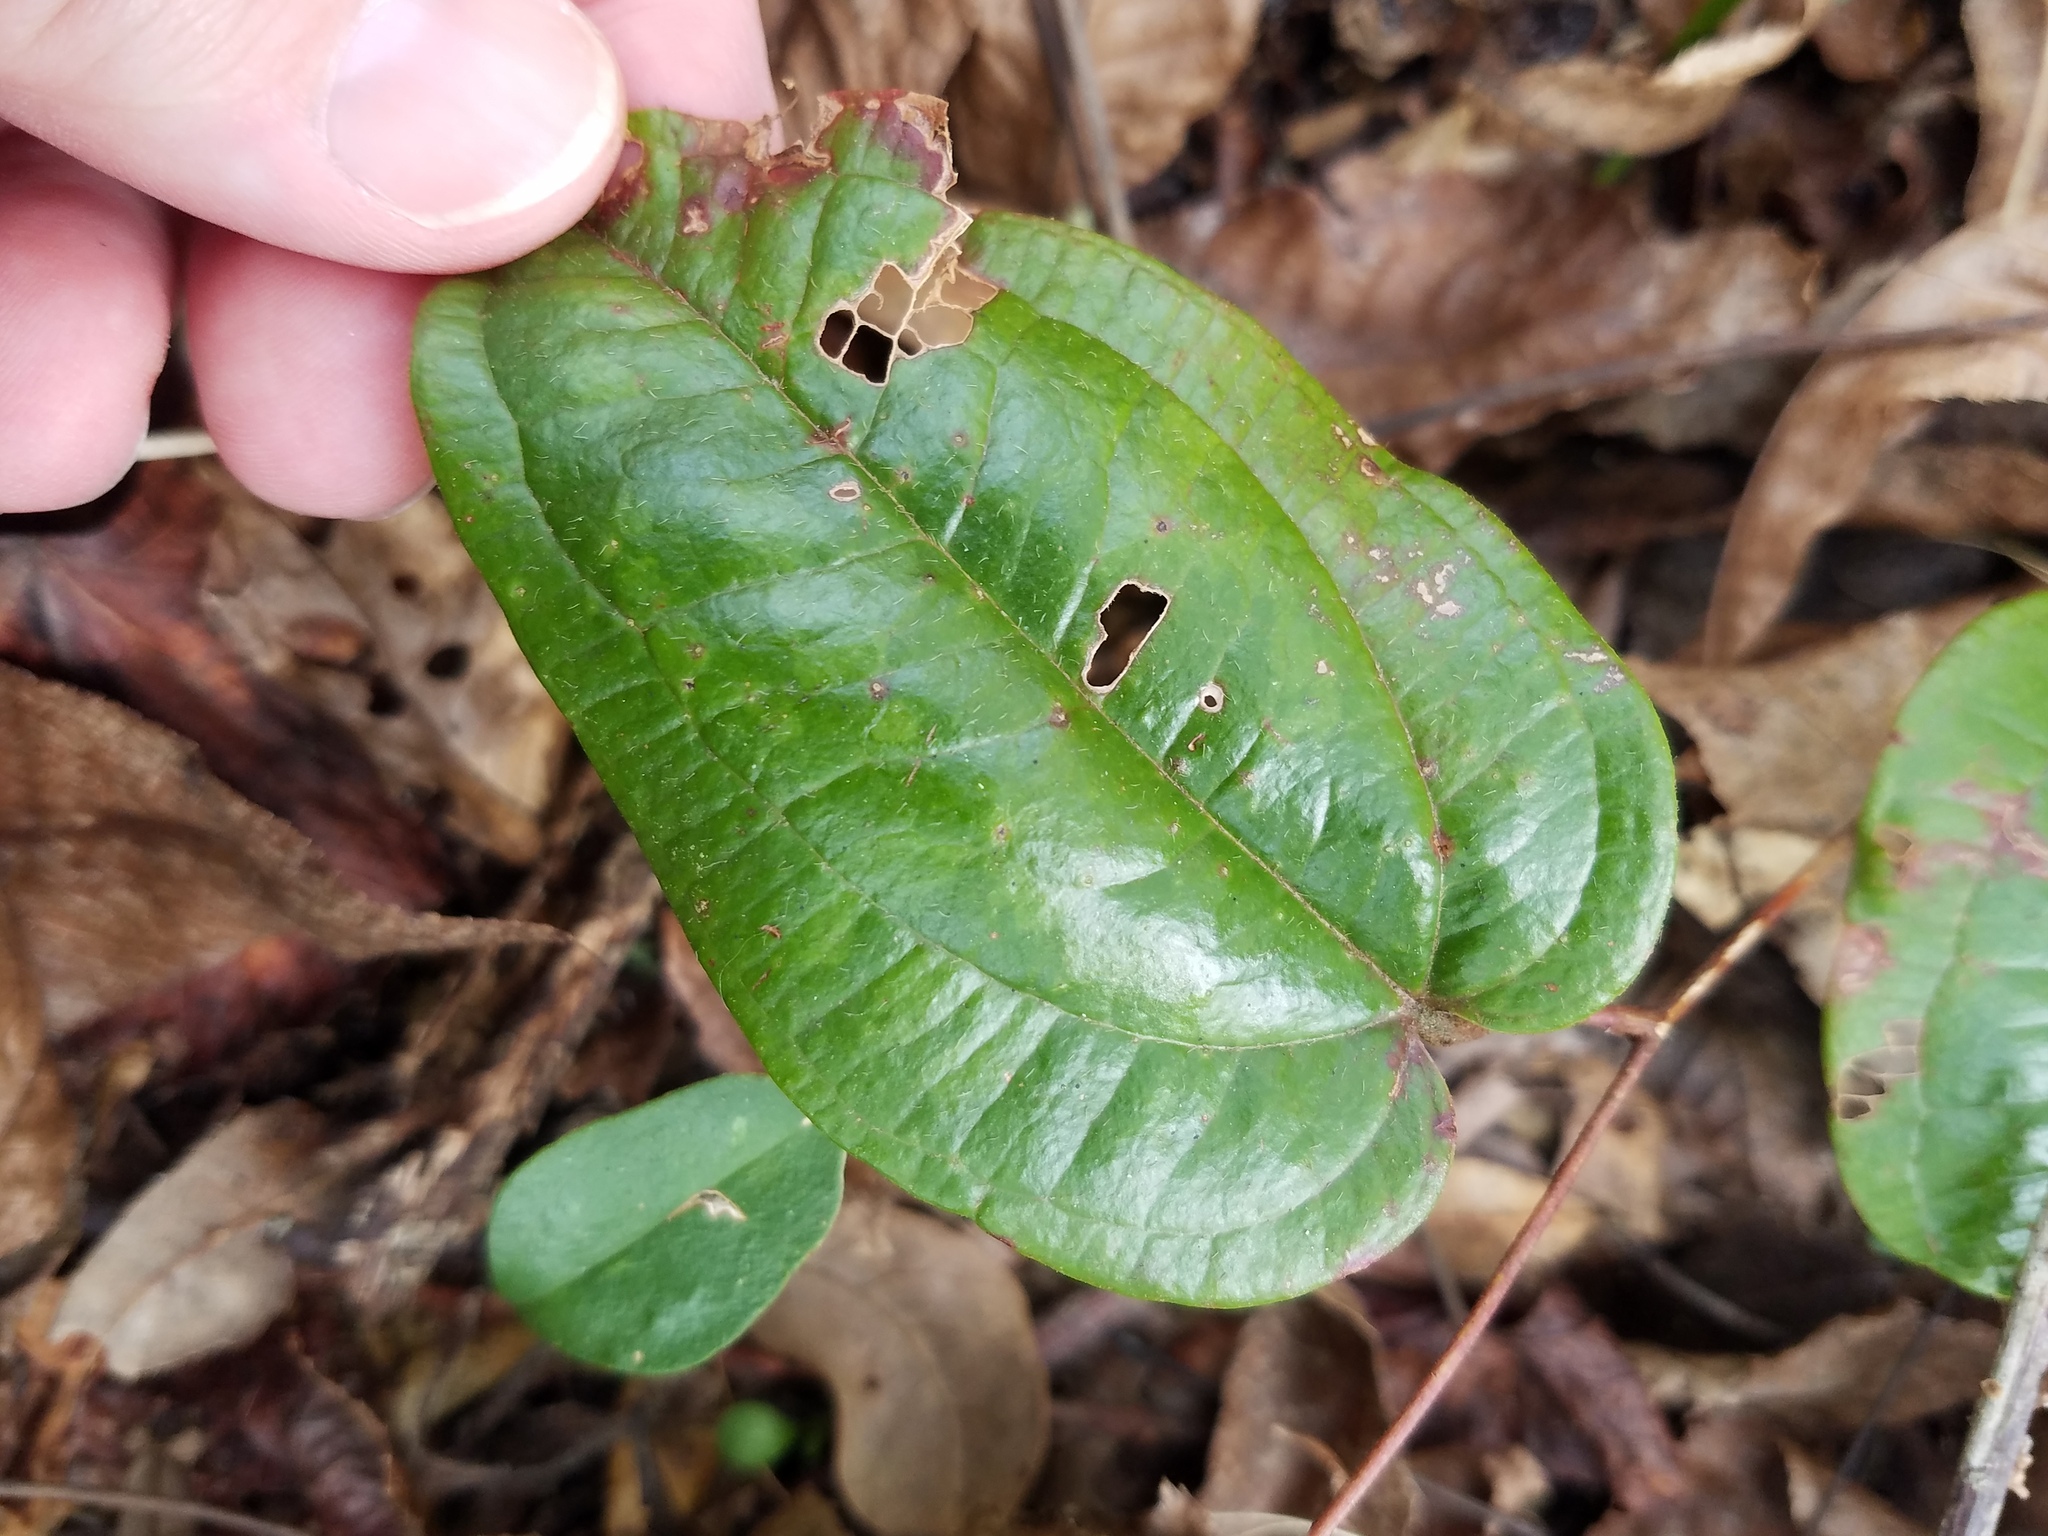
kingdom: Plantae
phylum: Tracheophyta
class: Liliopsida
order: Liliales
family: Smilacaceae
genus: Smilax
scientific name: Smilax pumila
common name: Sarsaparilla-vine
